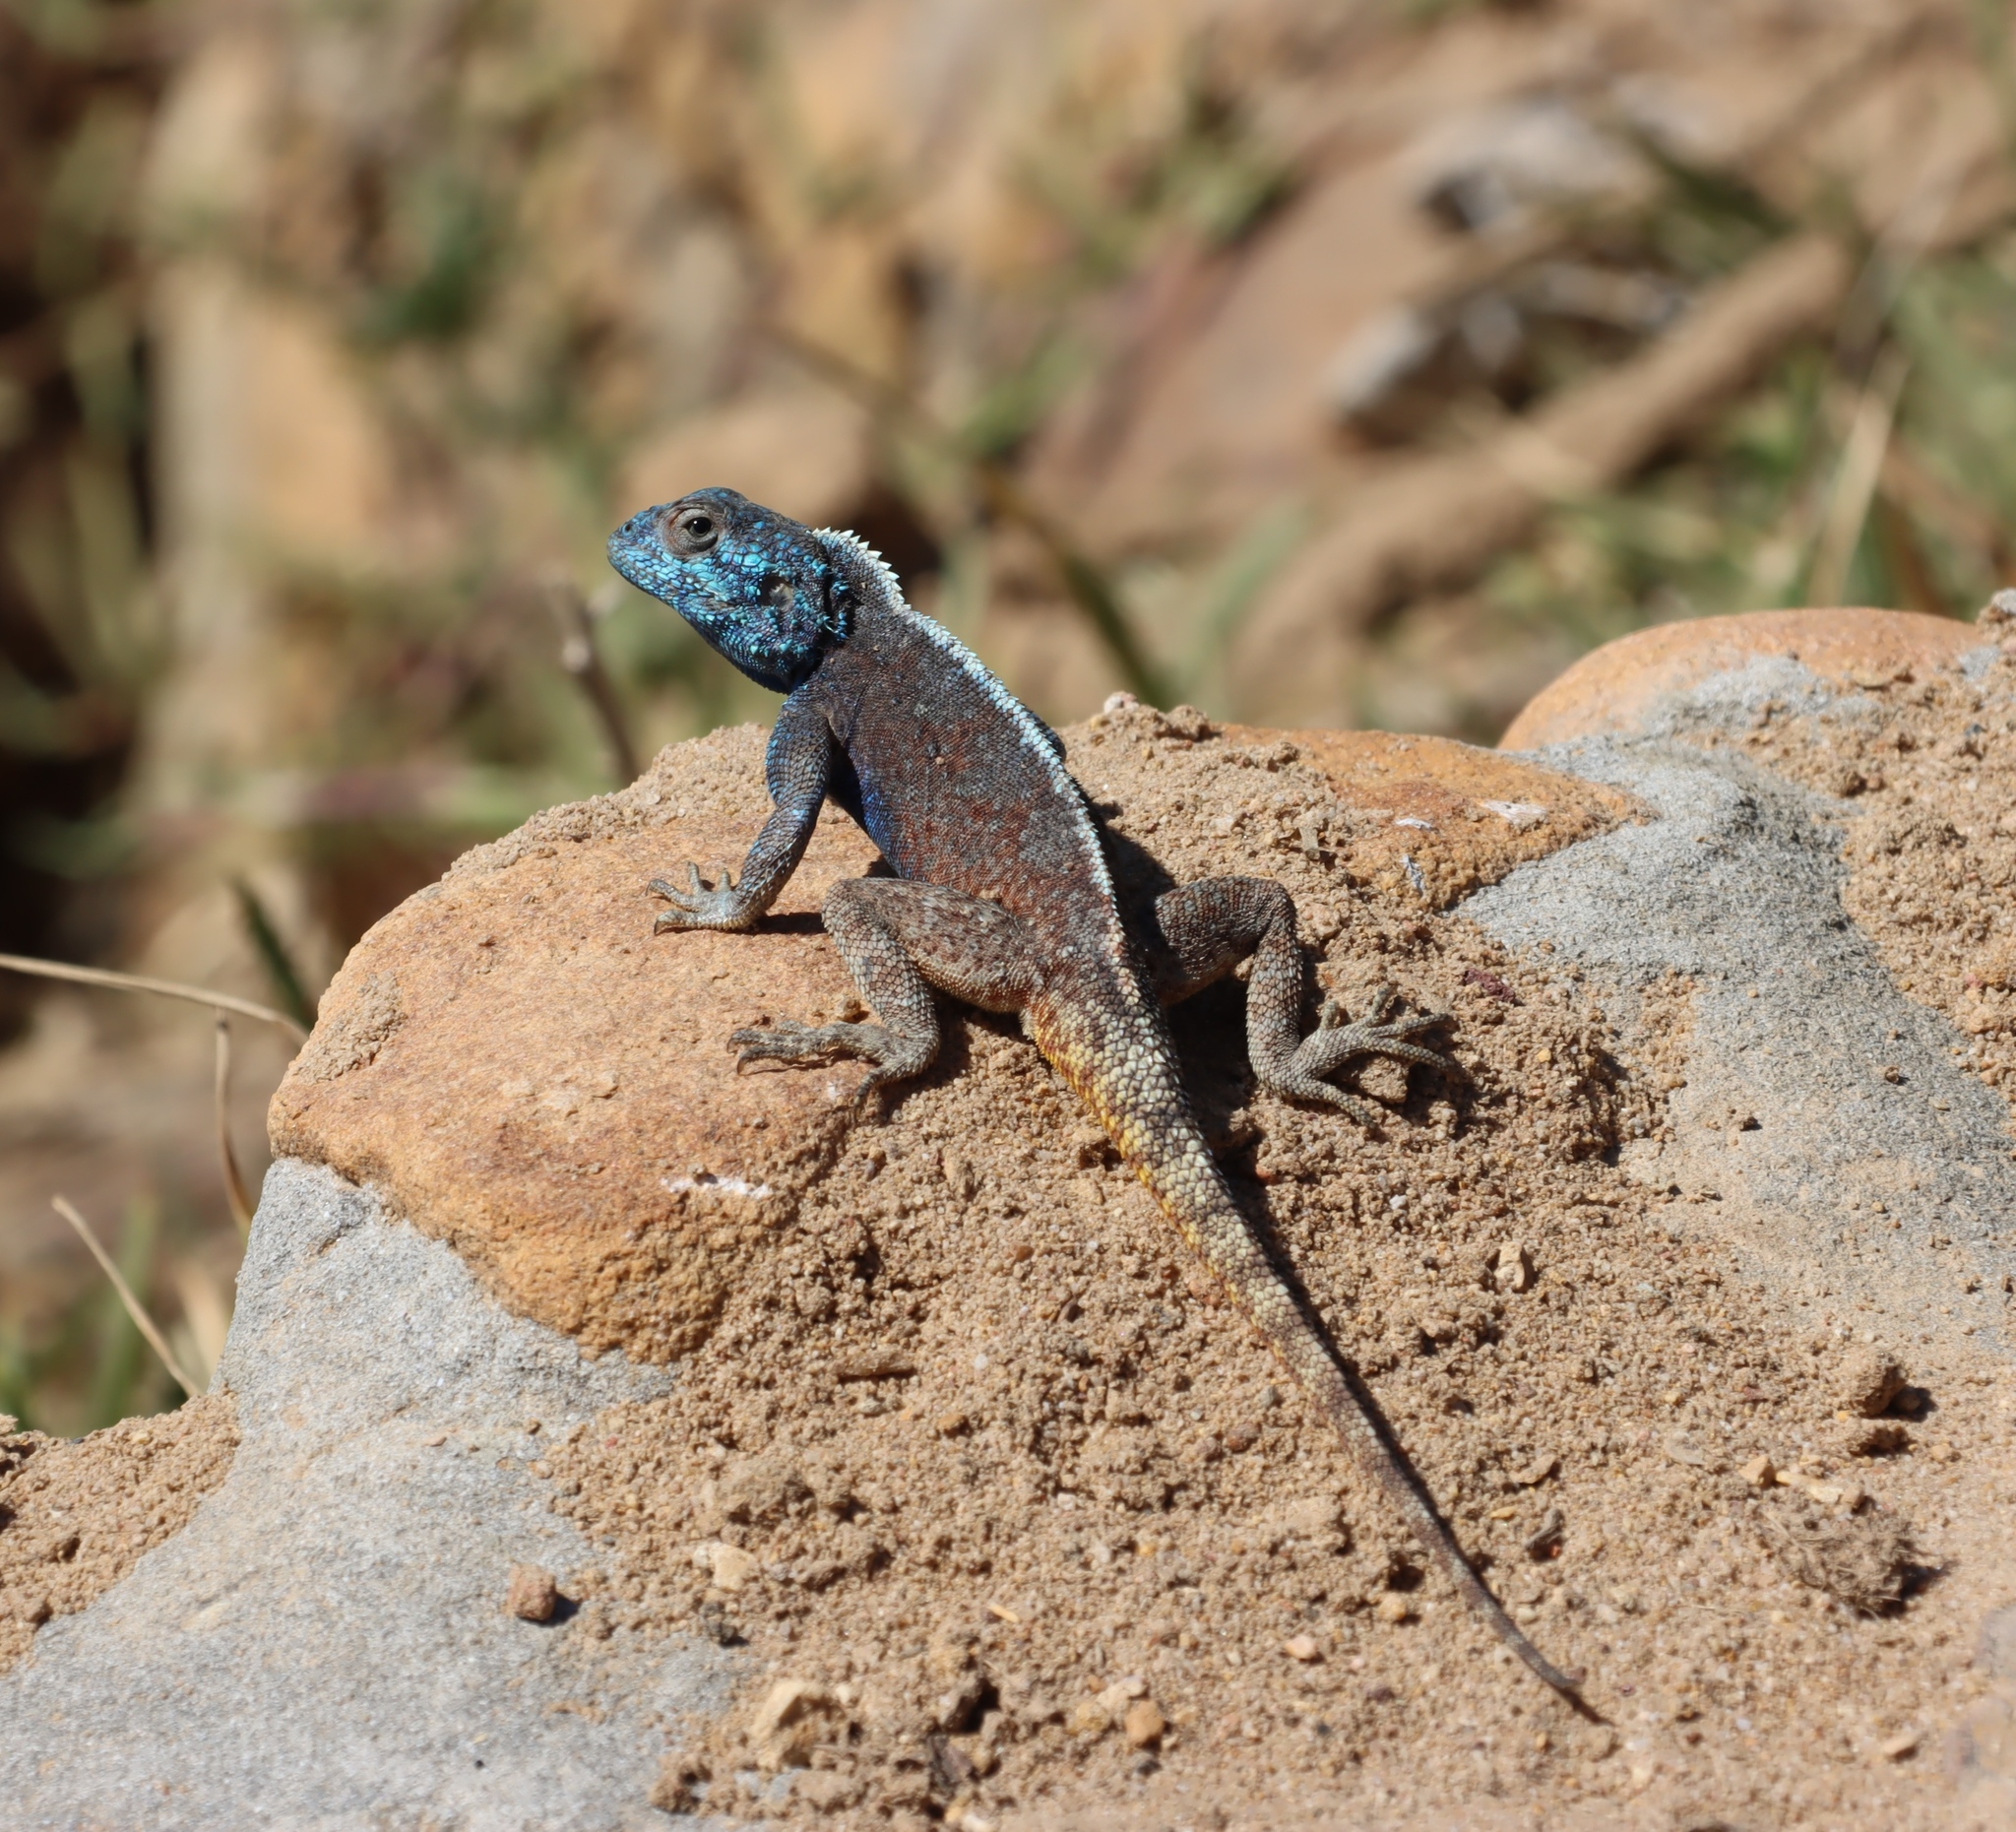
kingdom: Animalia
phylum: Chordata
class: Squamata
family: Agamidae
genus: Agama
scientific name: Agama atra
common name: Southern african rock agama
